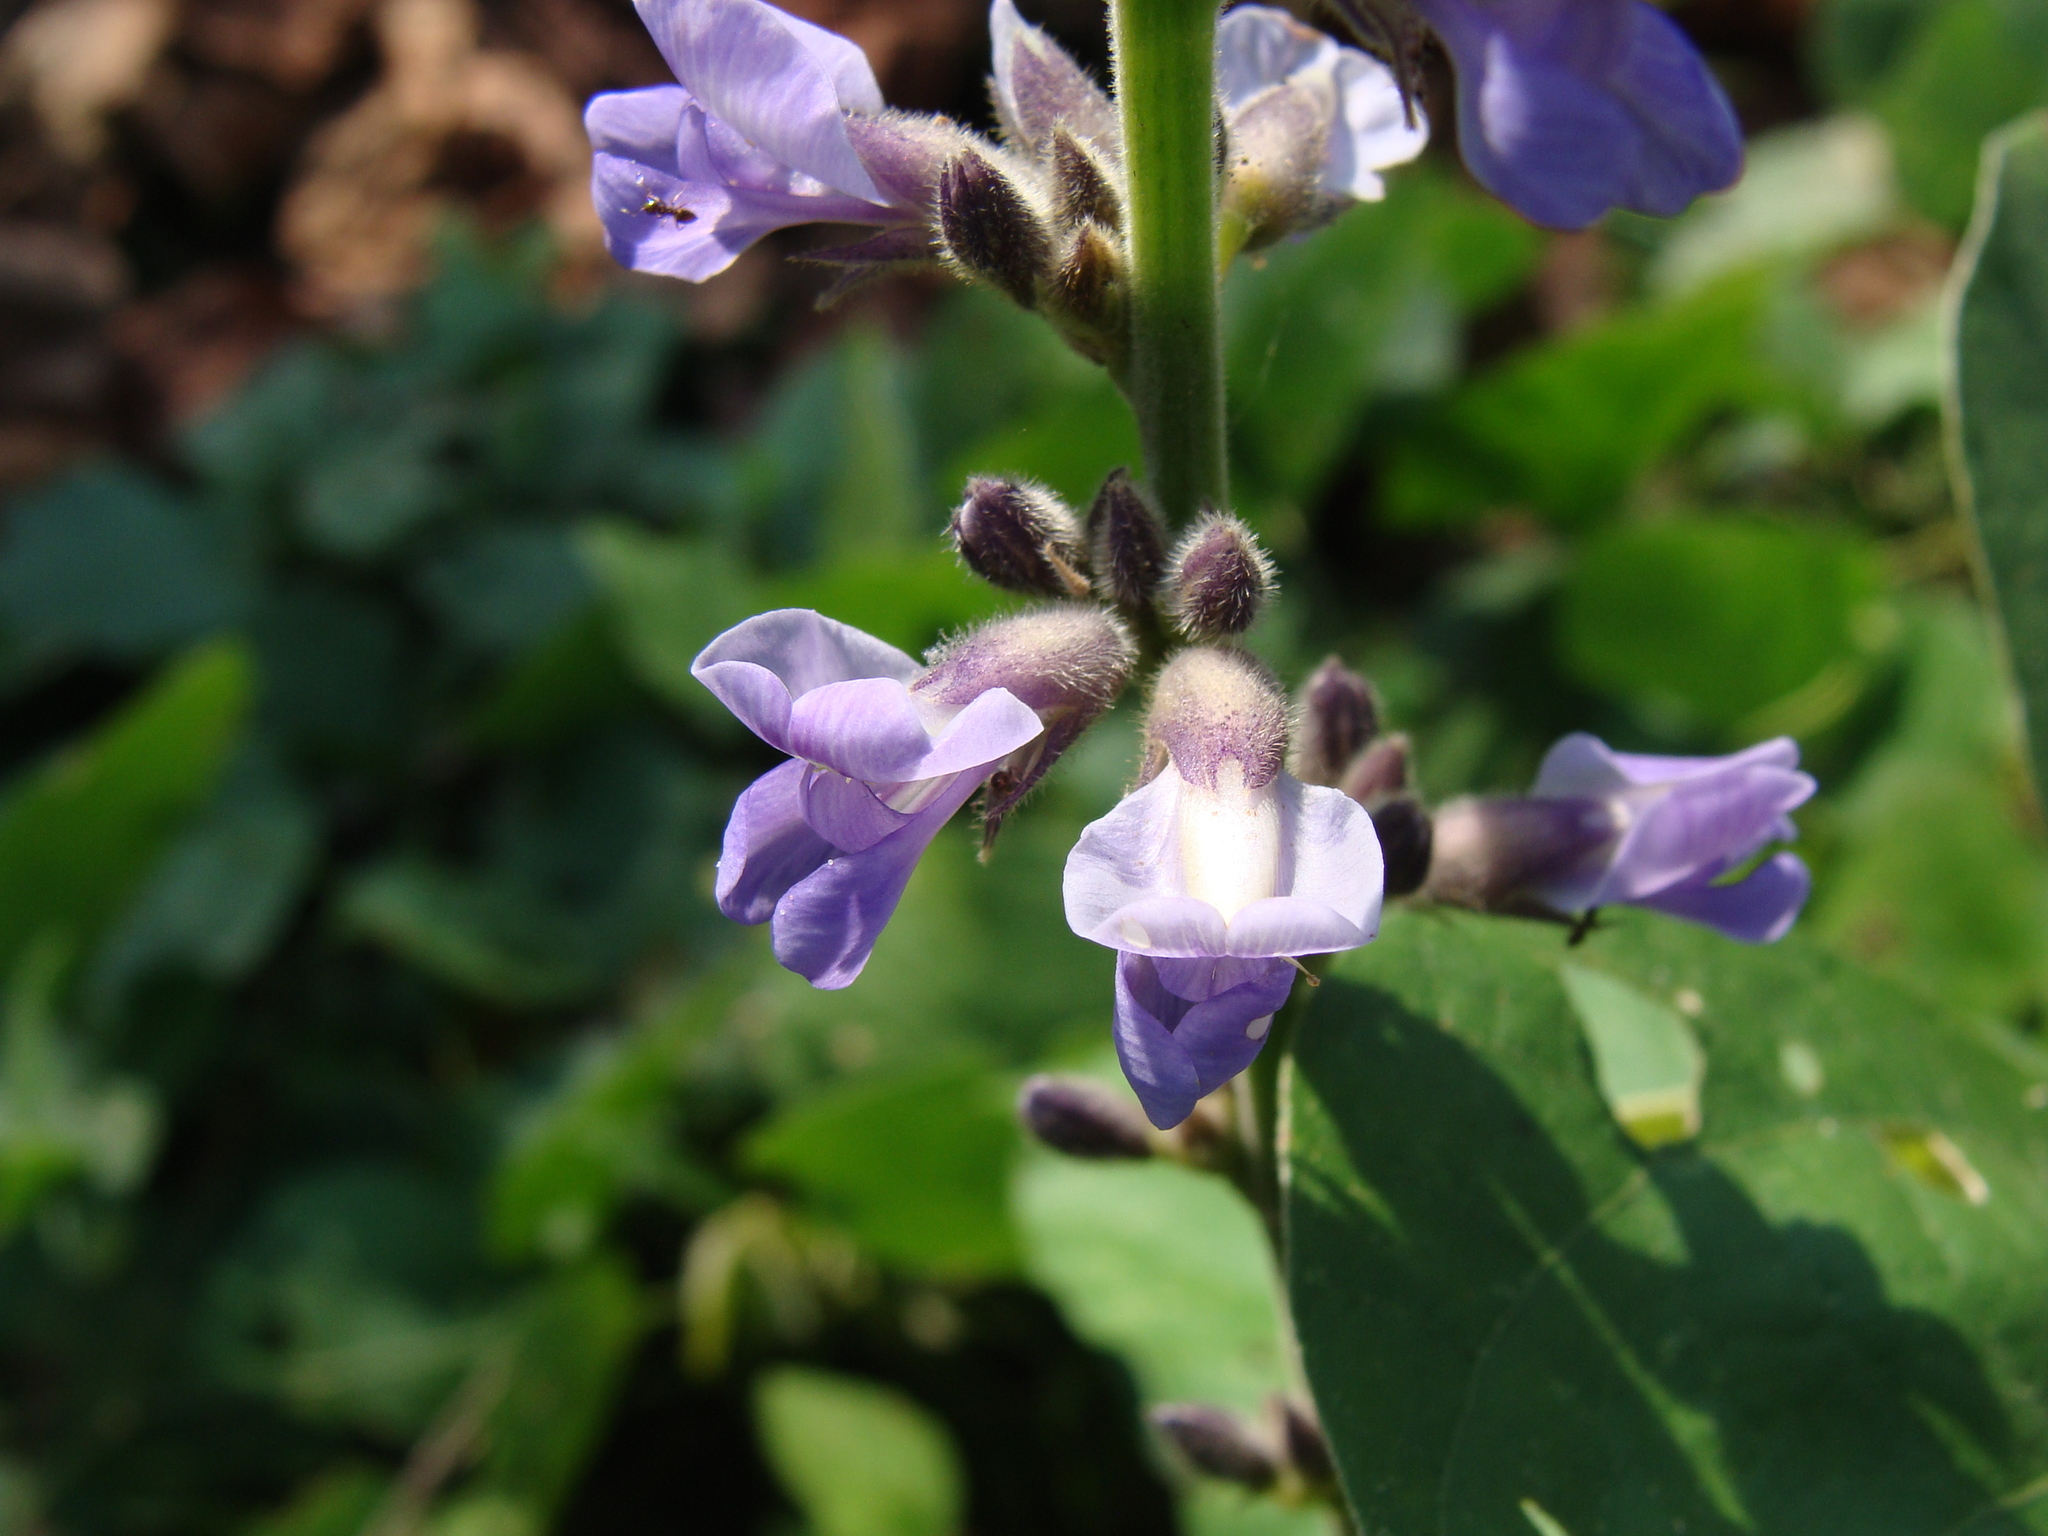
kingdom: Plantae
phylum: Tracheophyta
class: Magnoliopsida
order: Fabales
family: Fabaceae
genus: Calopogonium
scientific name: Calopogonium caeruleum
